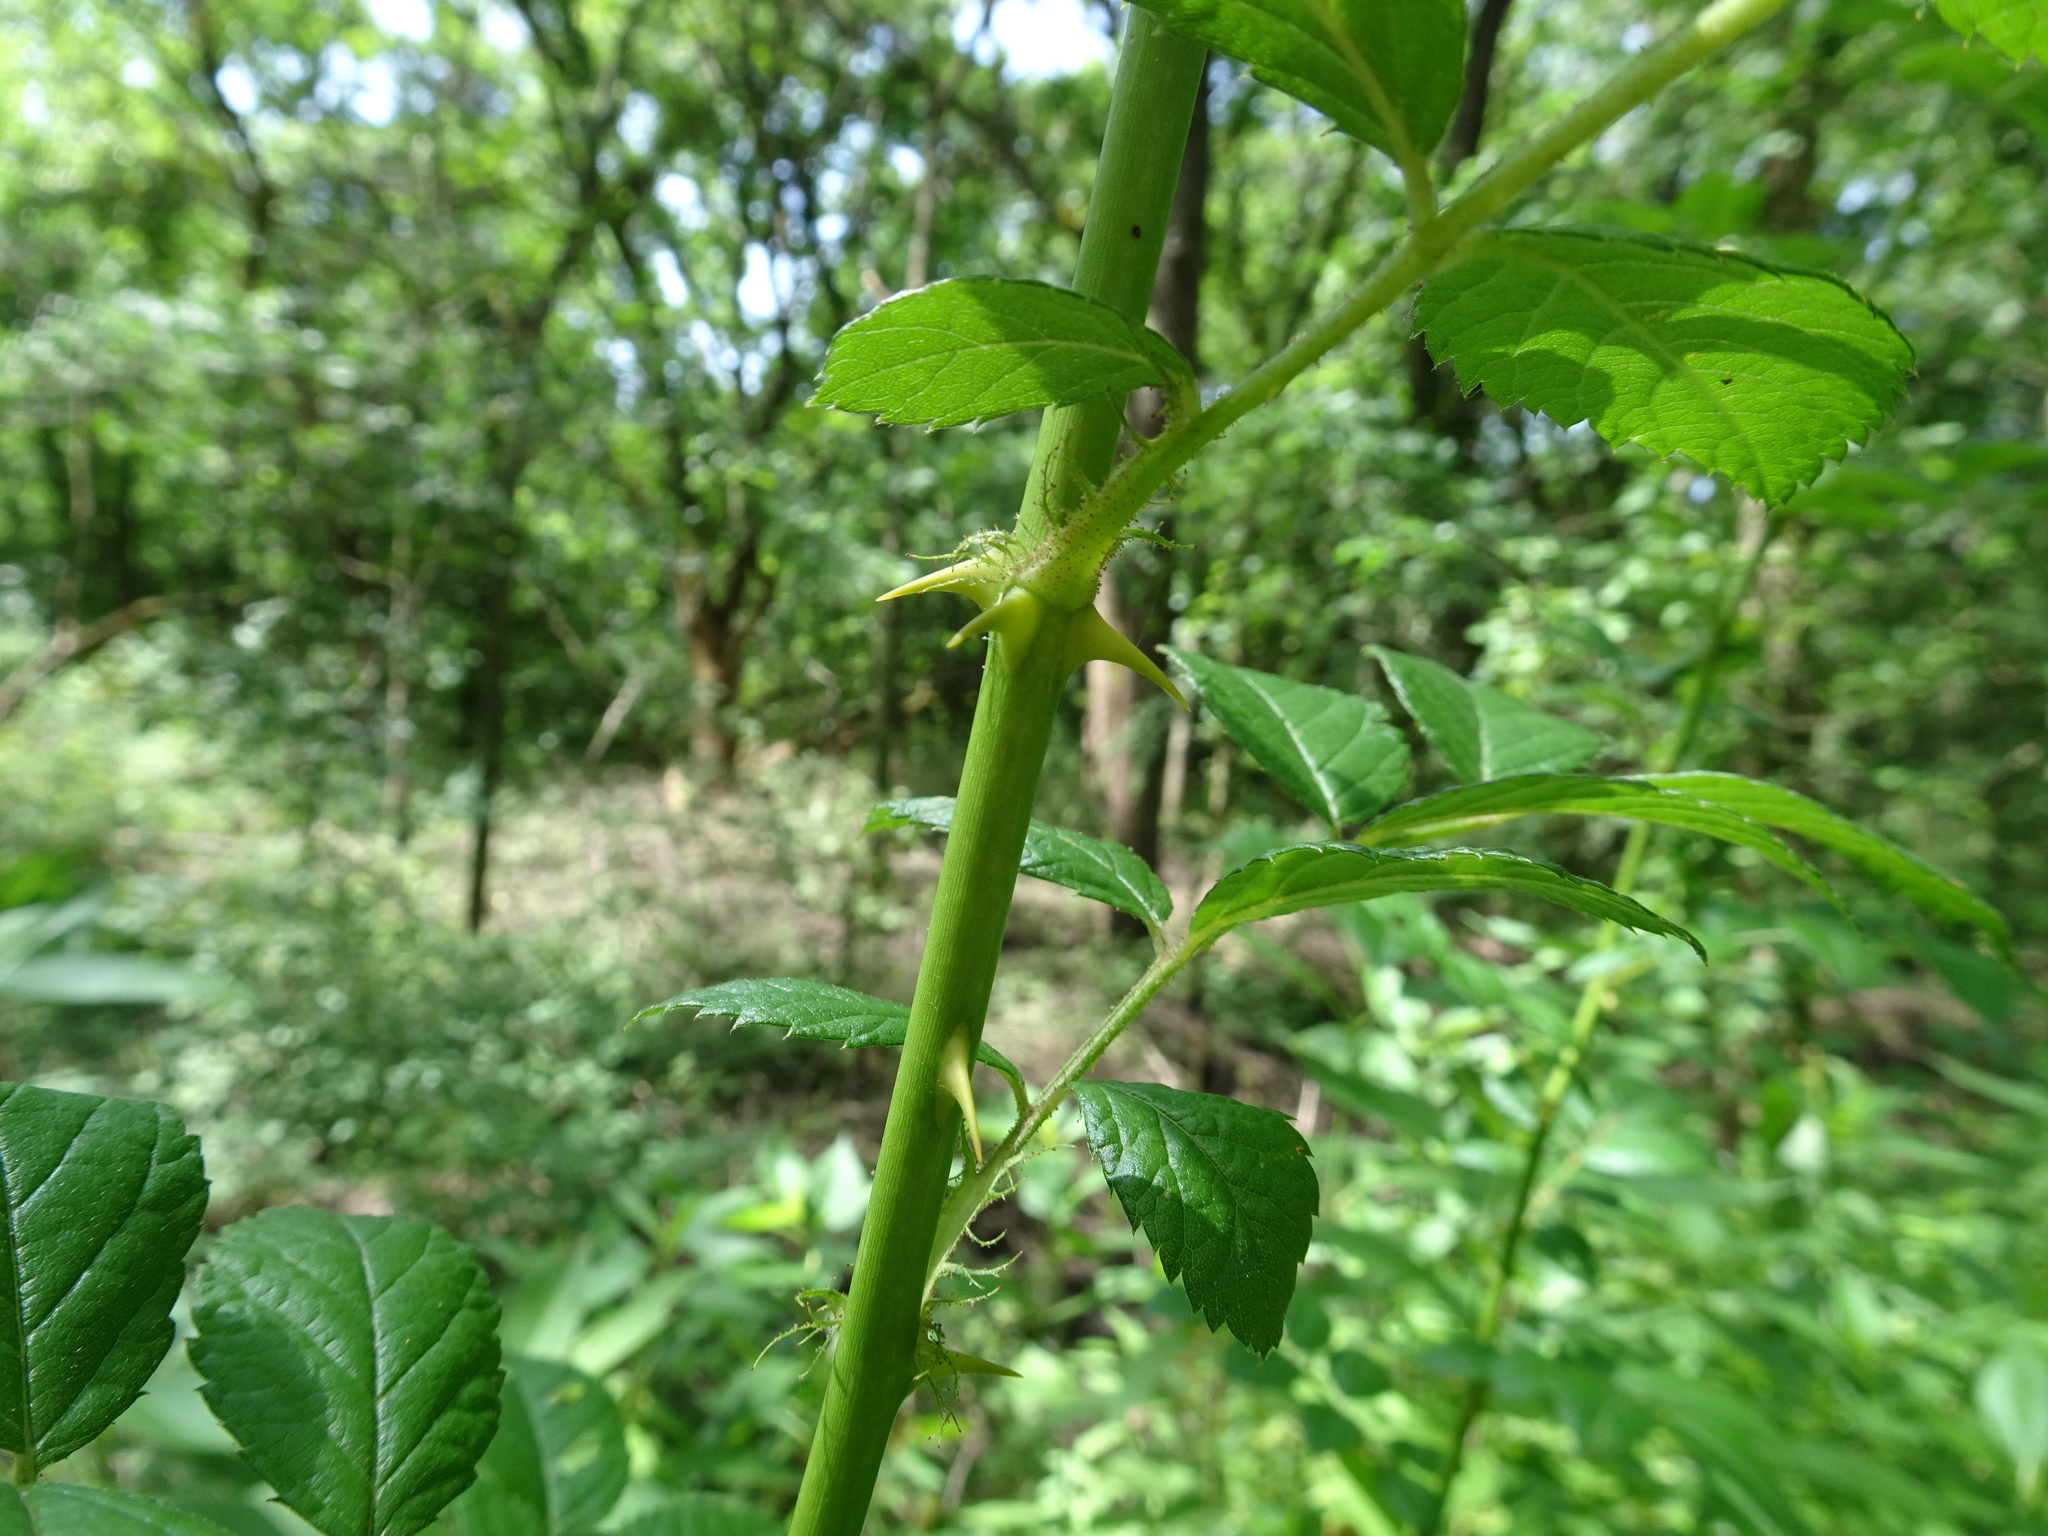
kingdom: Plantae
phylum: Tracheophyta
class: Magnoliopsida
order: Rosales
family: Rosaceae
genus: Rosa
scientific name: Rosa multiflora
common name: Multiflora rose
